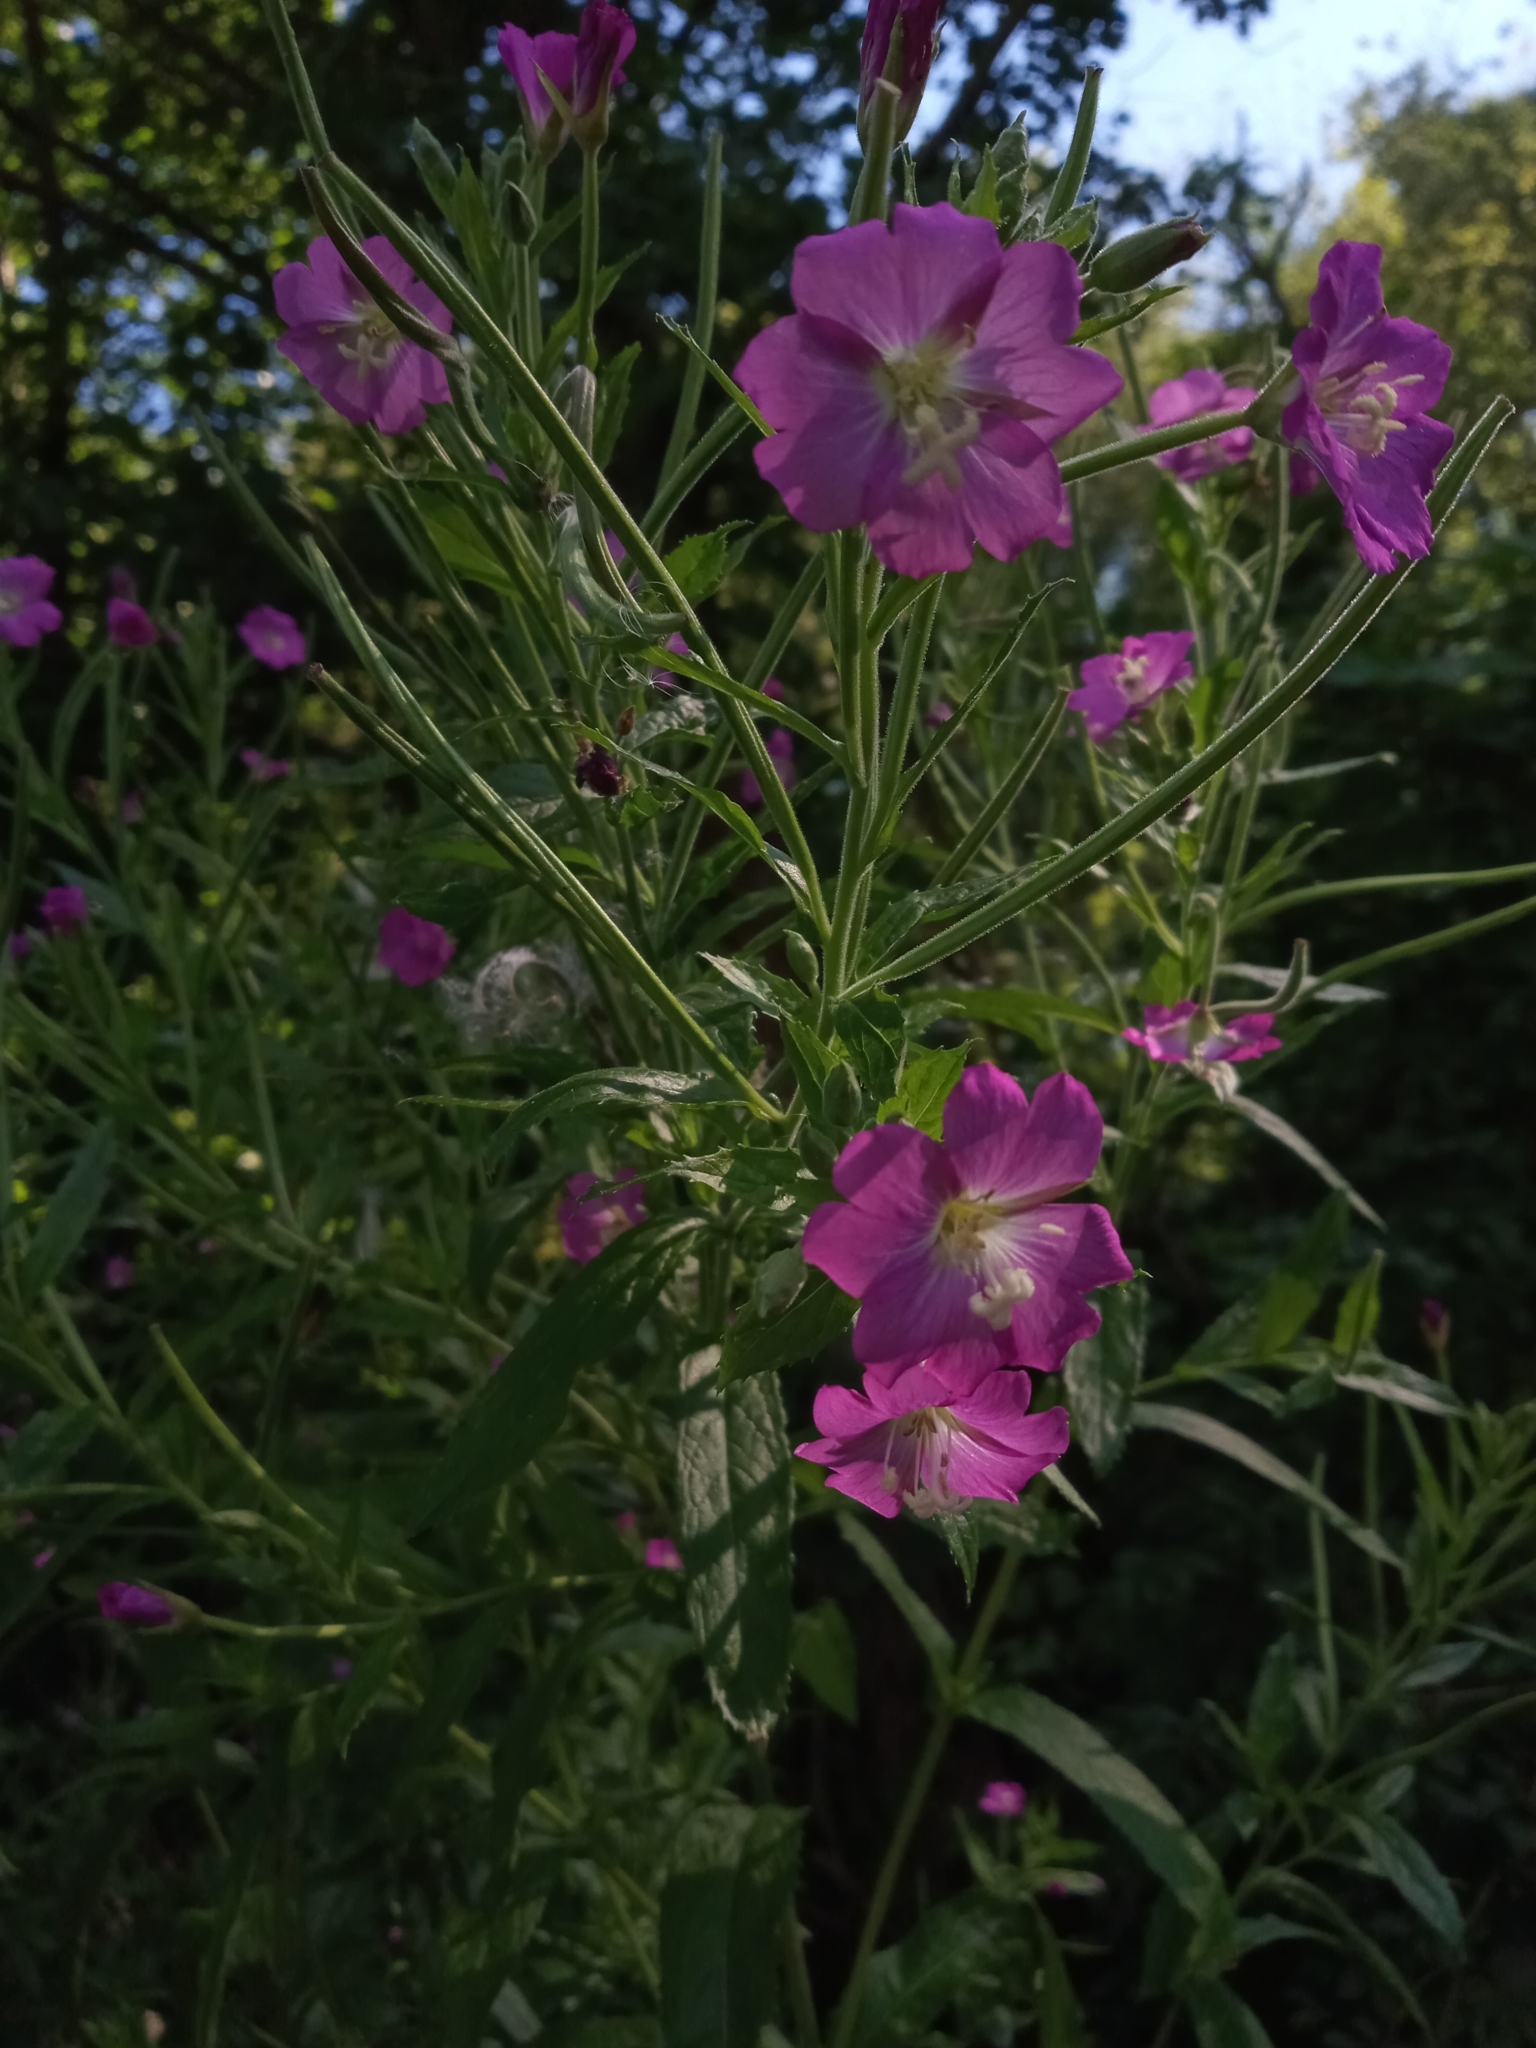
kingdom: Plantae
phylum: Tracheophyta
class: Magnoliopsida
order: Myrtales
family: Onagraceae
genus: Epilobium
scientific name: Epilobium hirsutum
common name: Great willowherb
